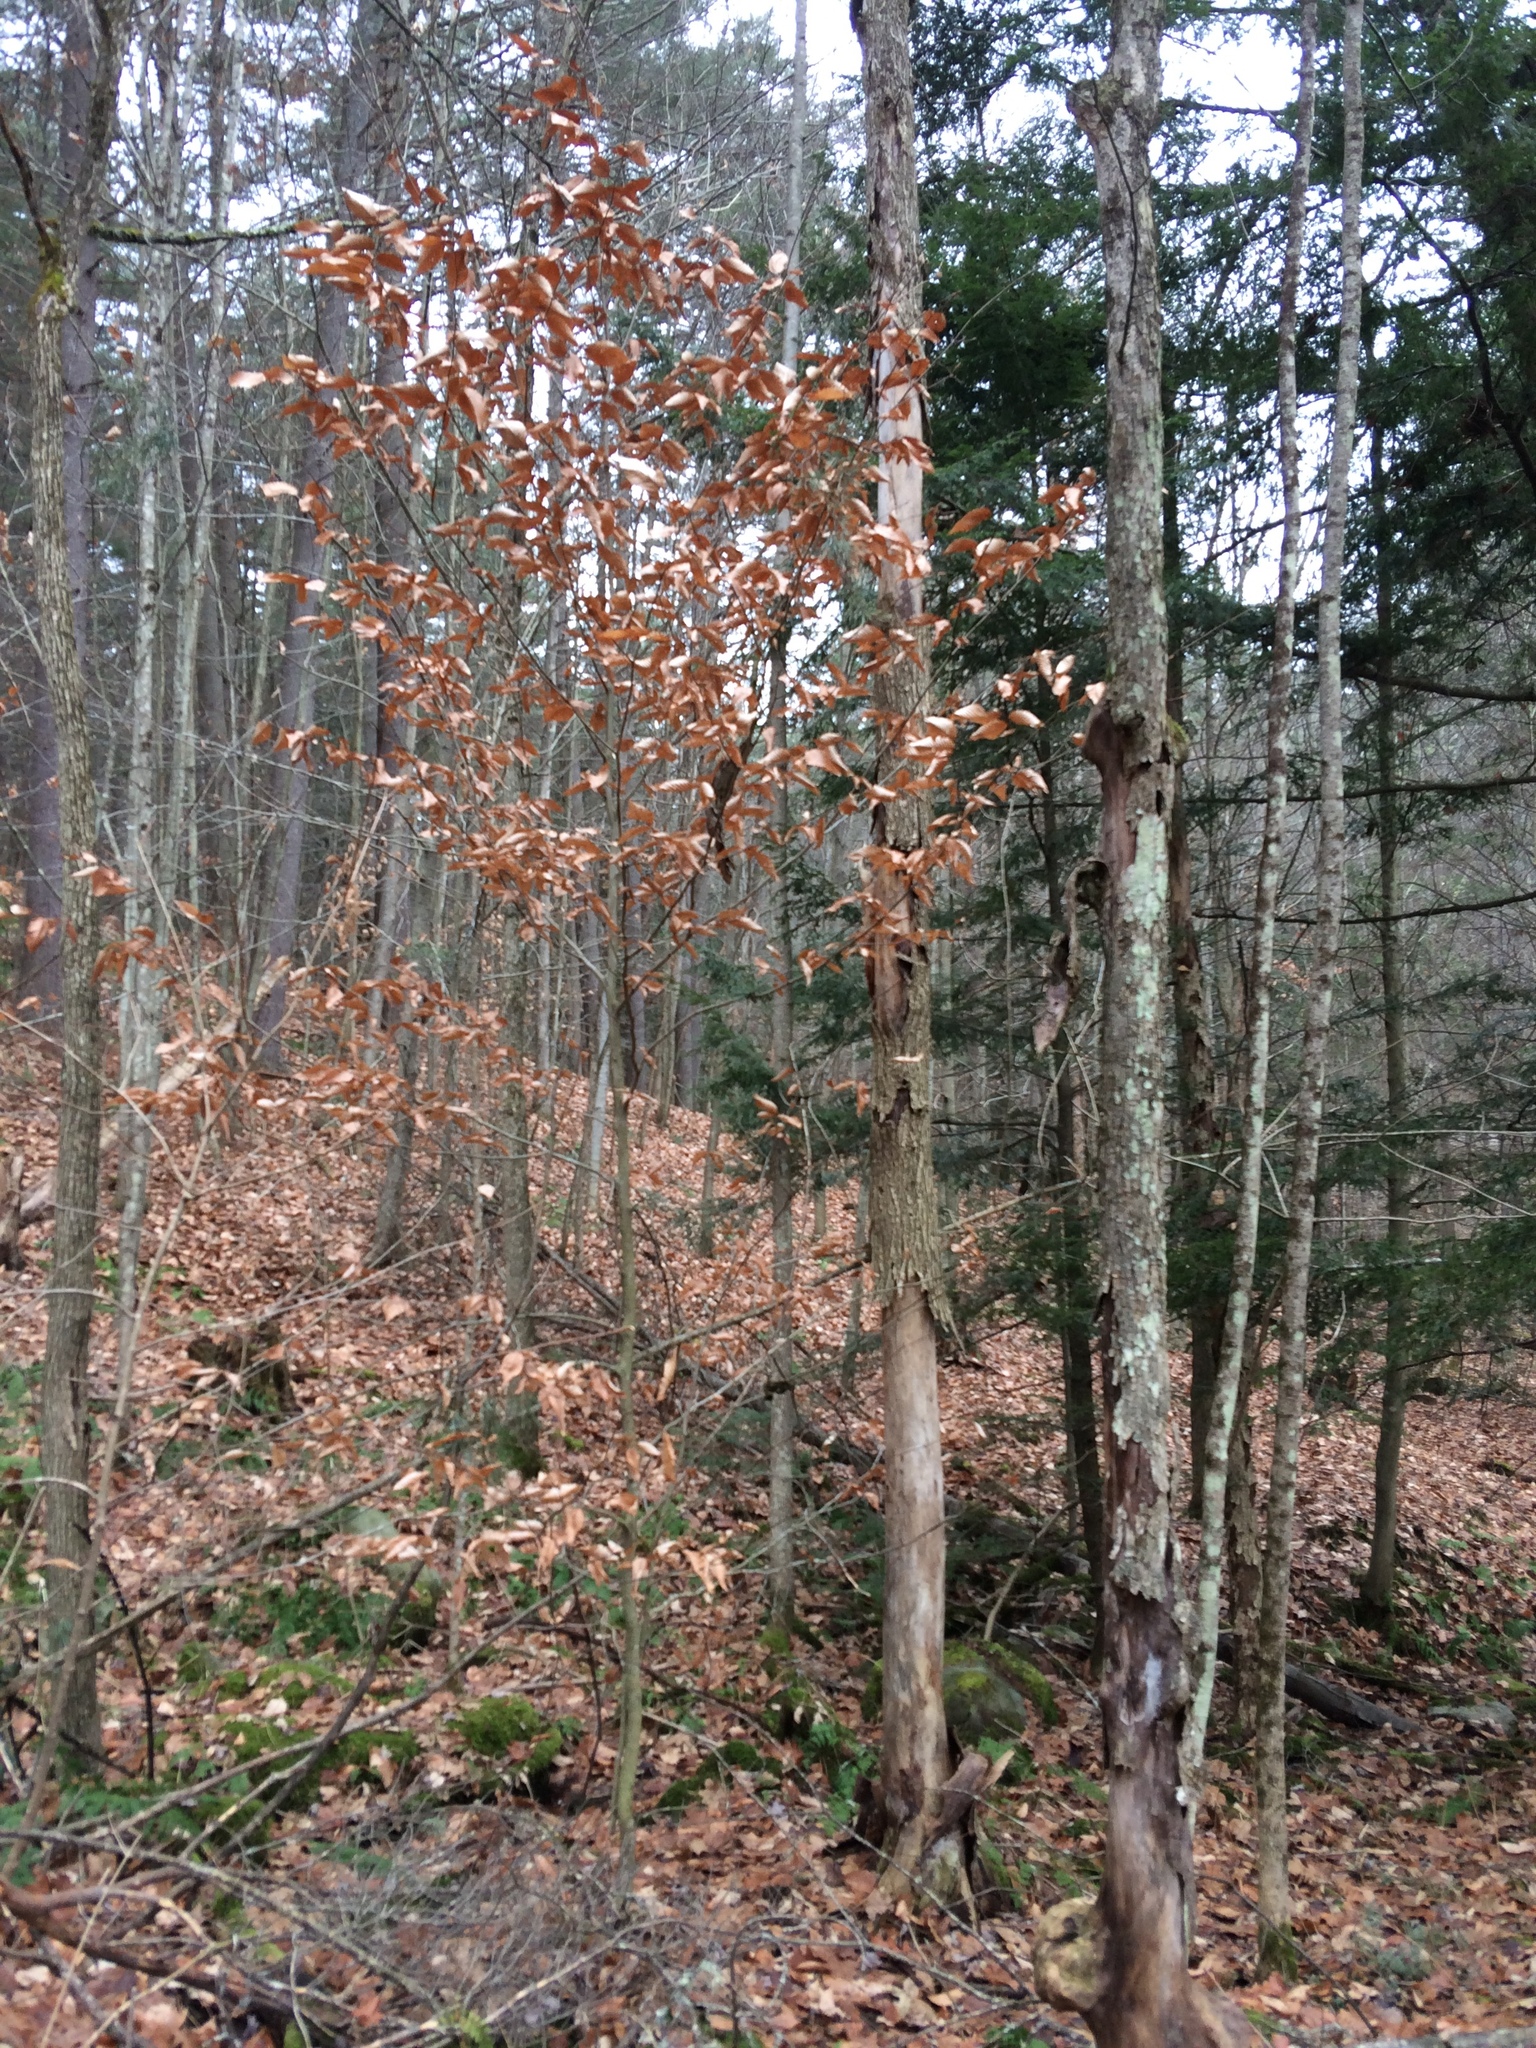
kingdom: Plantae
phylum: Tracheophyta
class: Magnoliopsida
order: Fagales
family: Fagaceae
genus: Fagus
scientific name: Fagus grandifolia
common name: American beech
